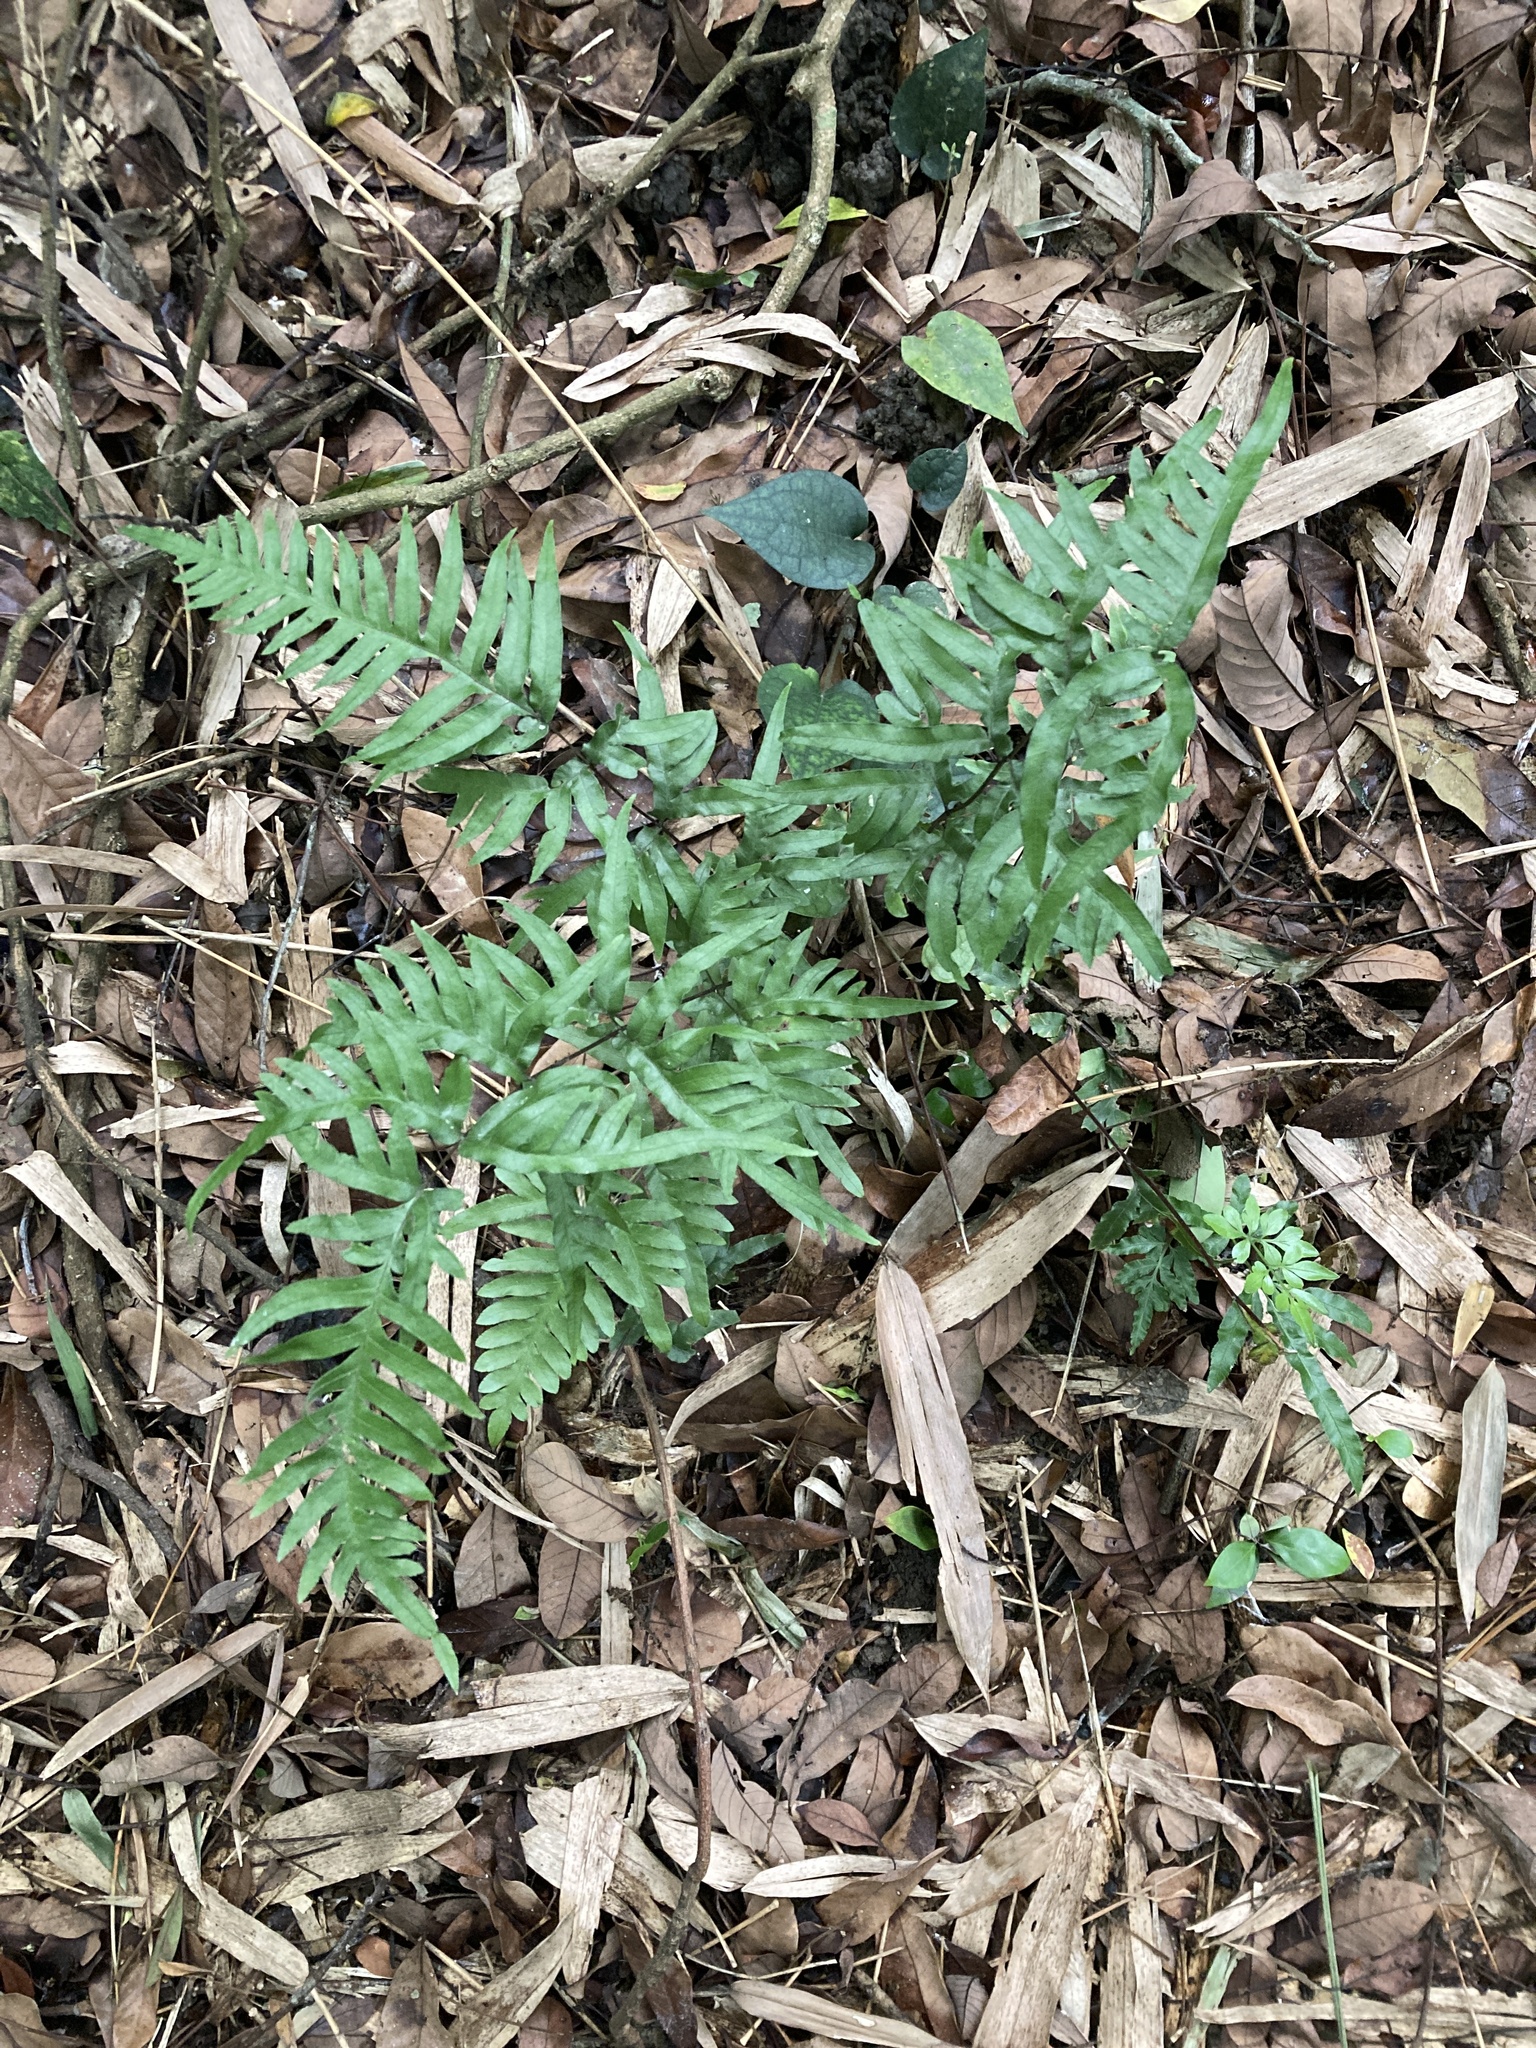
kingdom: Plantae
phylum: Tracheophyta
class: Polypodiopsida
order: Polypodiales
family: Pteridaceae
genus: Pteris
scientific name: Pteris semipinnata
